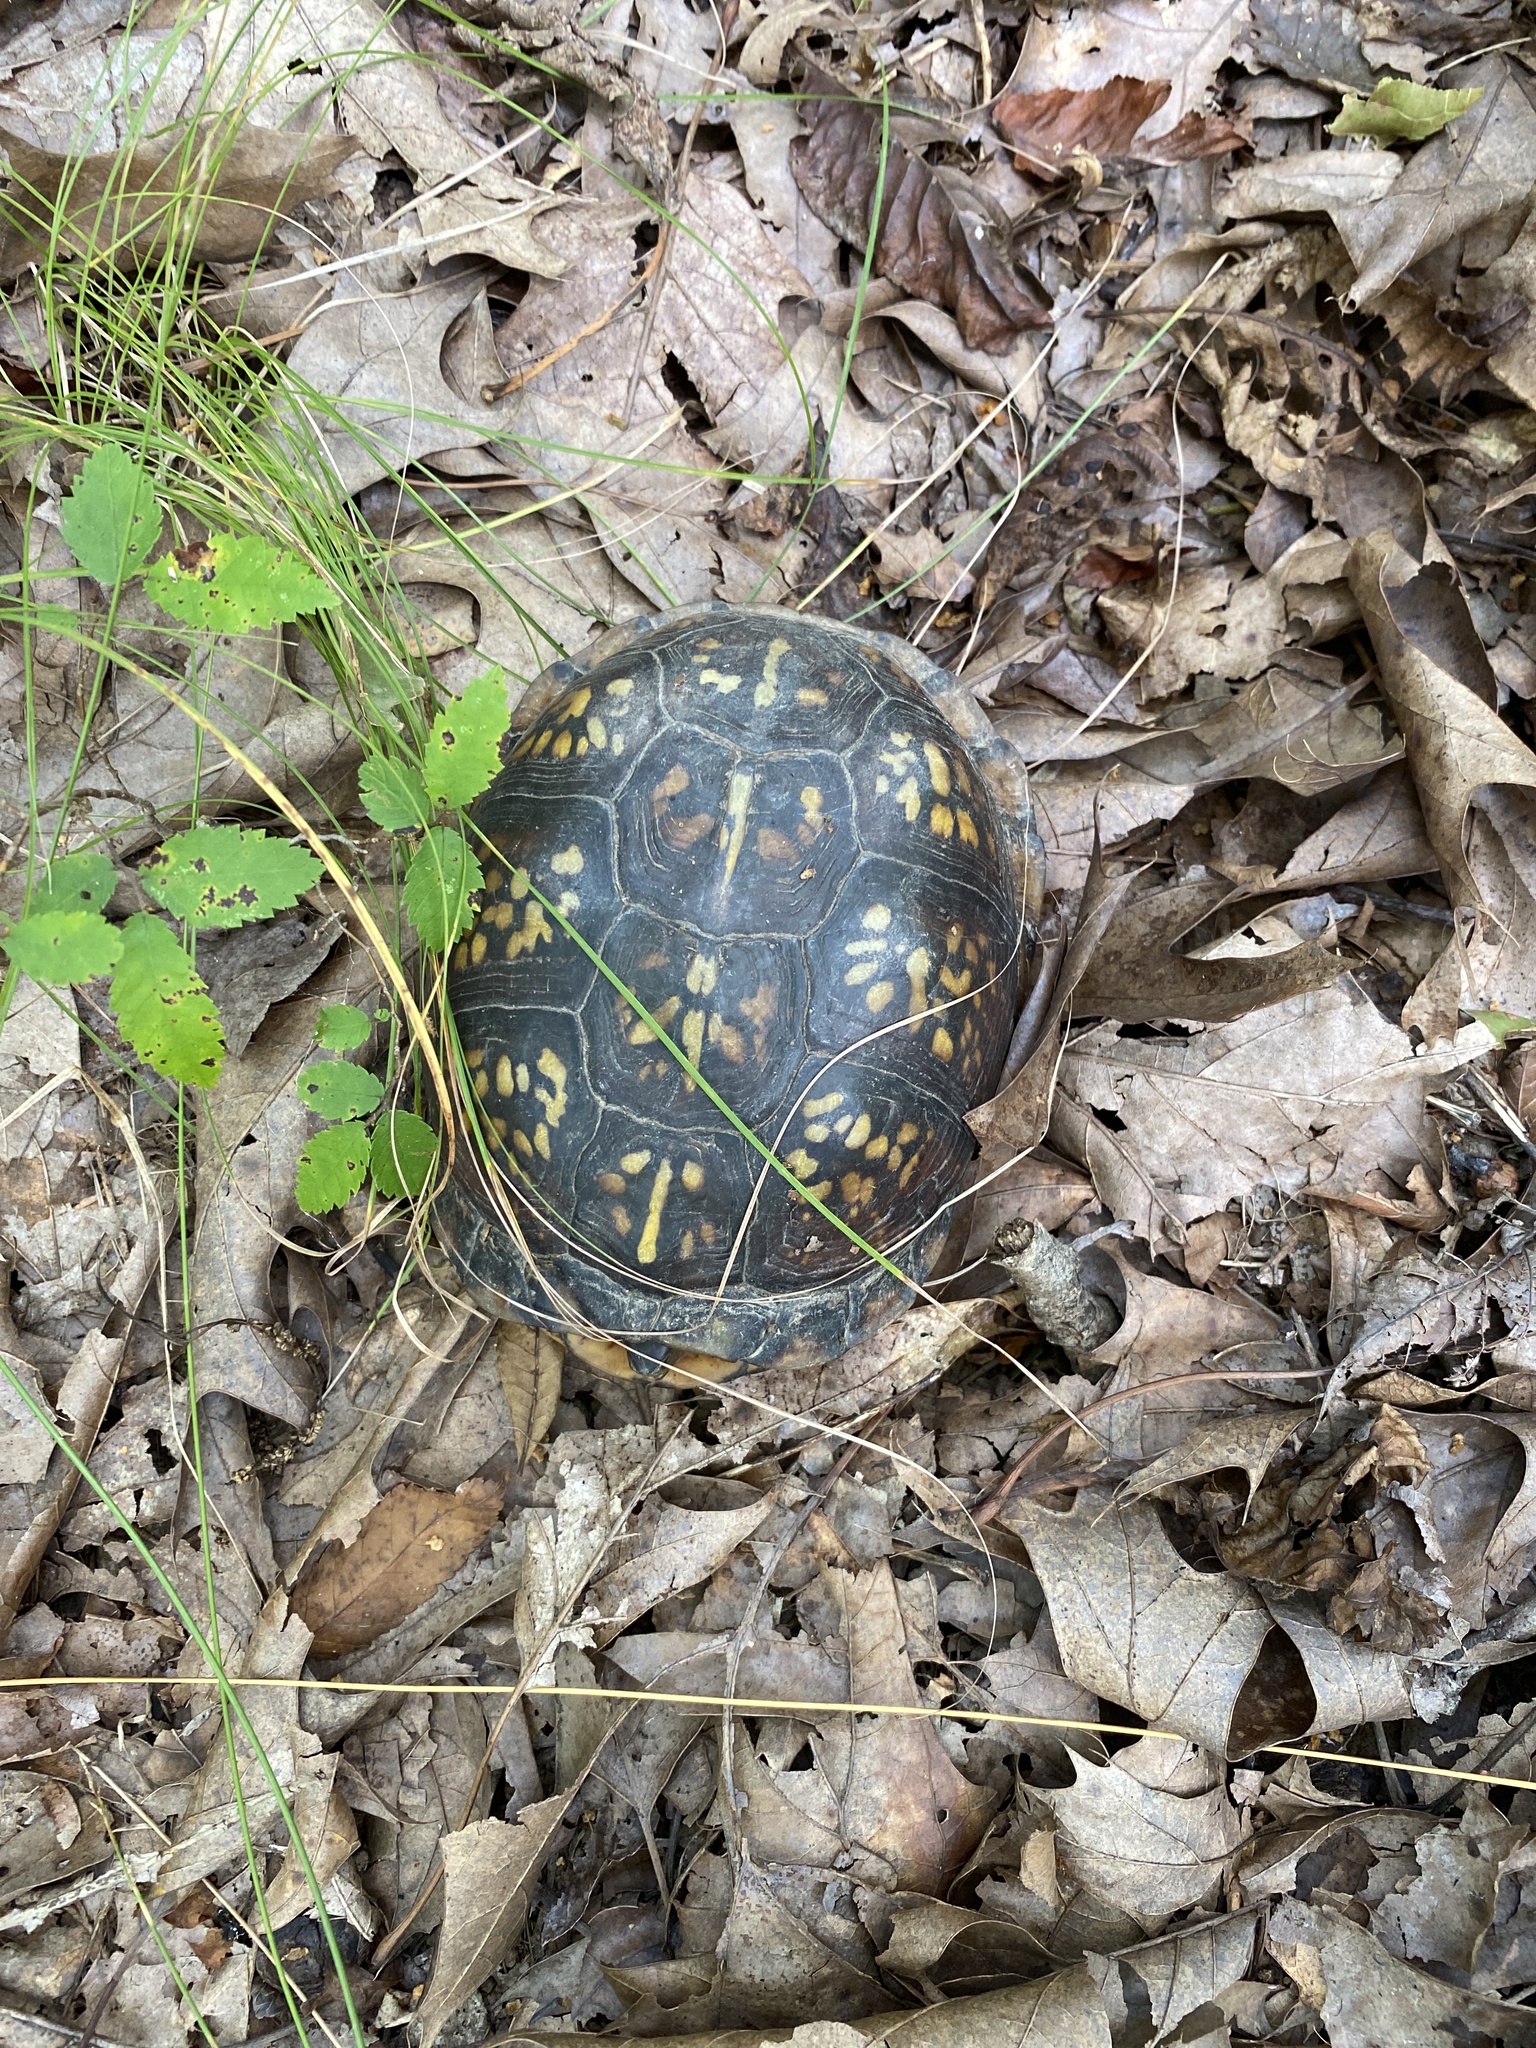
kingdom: Animalia
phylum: Chordata
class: Testudines
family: Emydidae
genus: Terrapene
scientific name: Terrapene carolina
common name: Common box turtle
